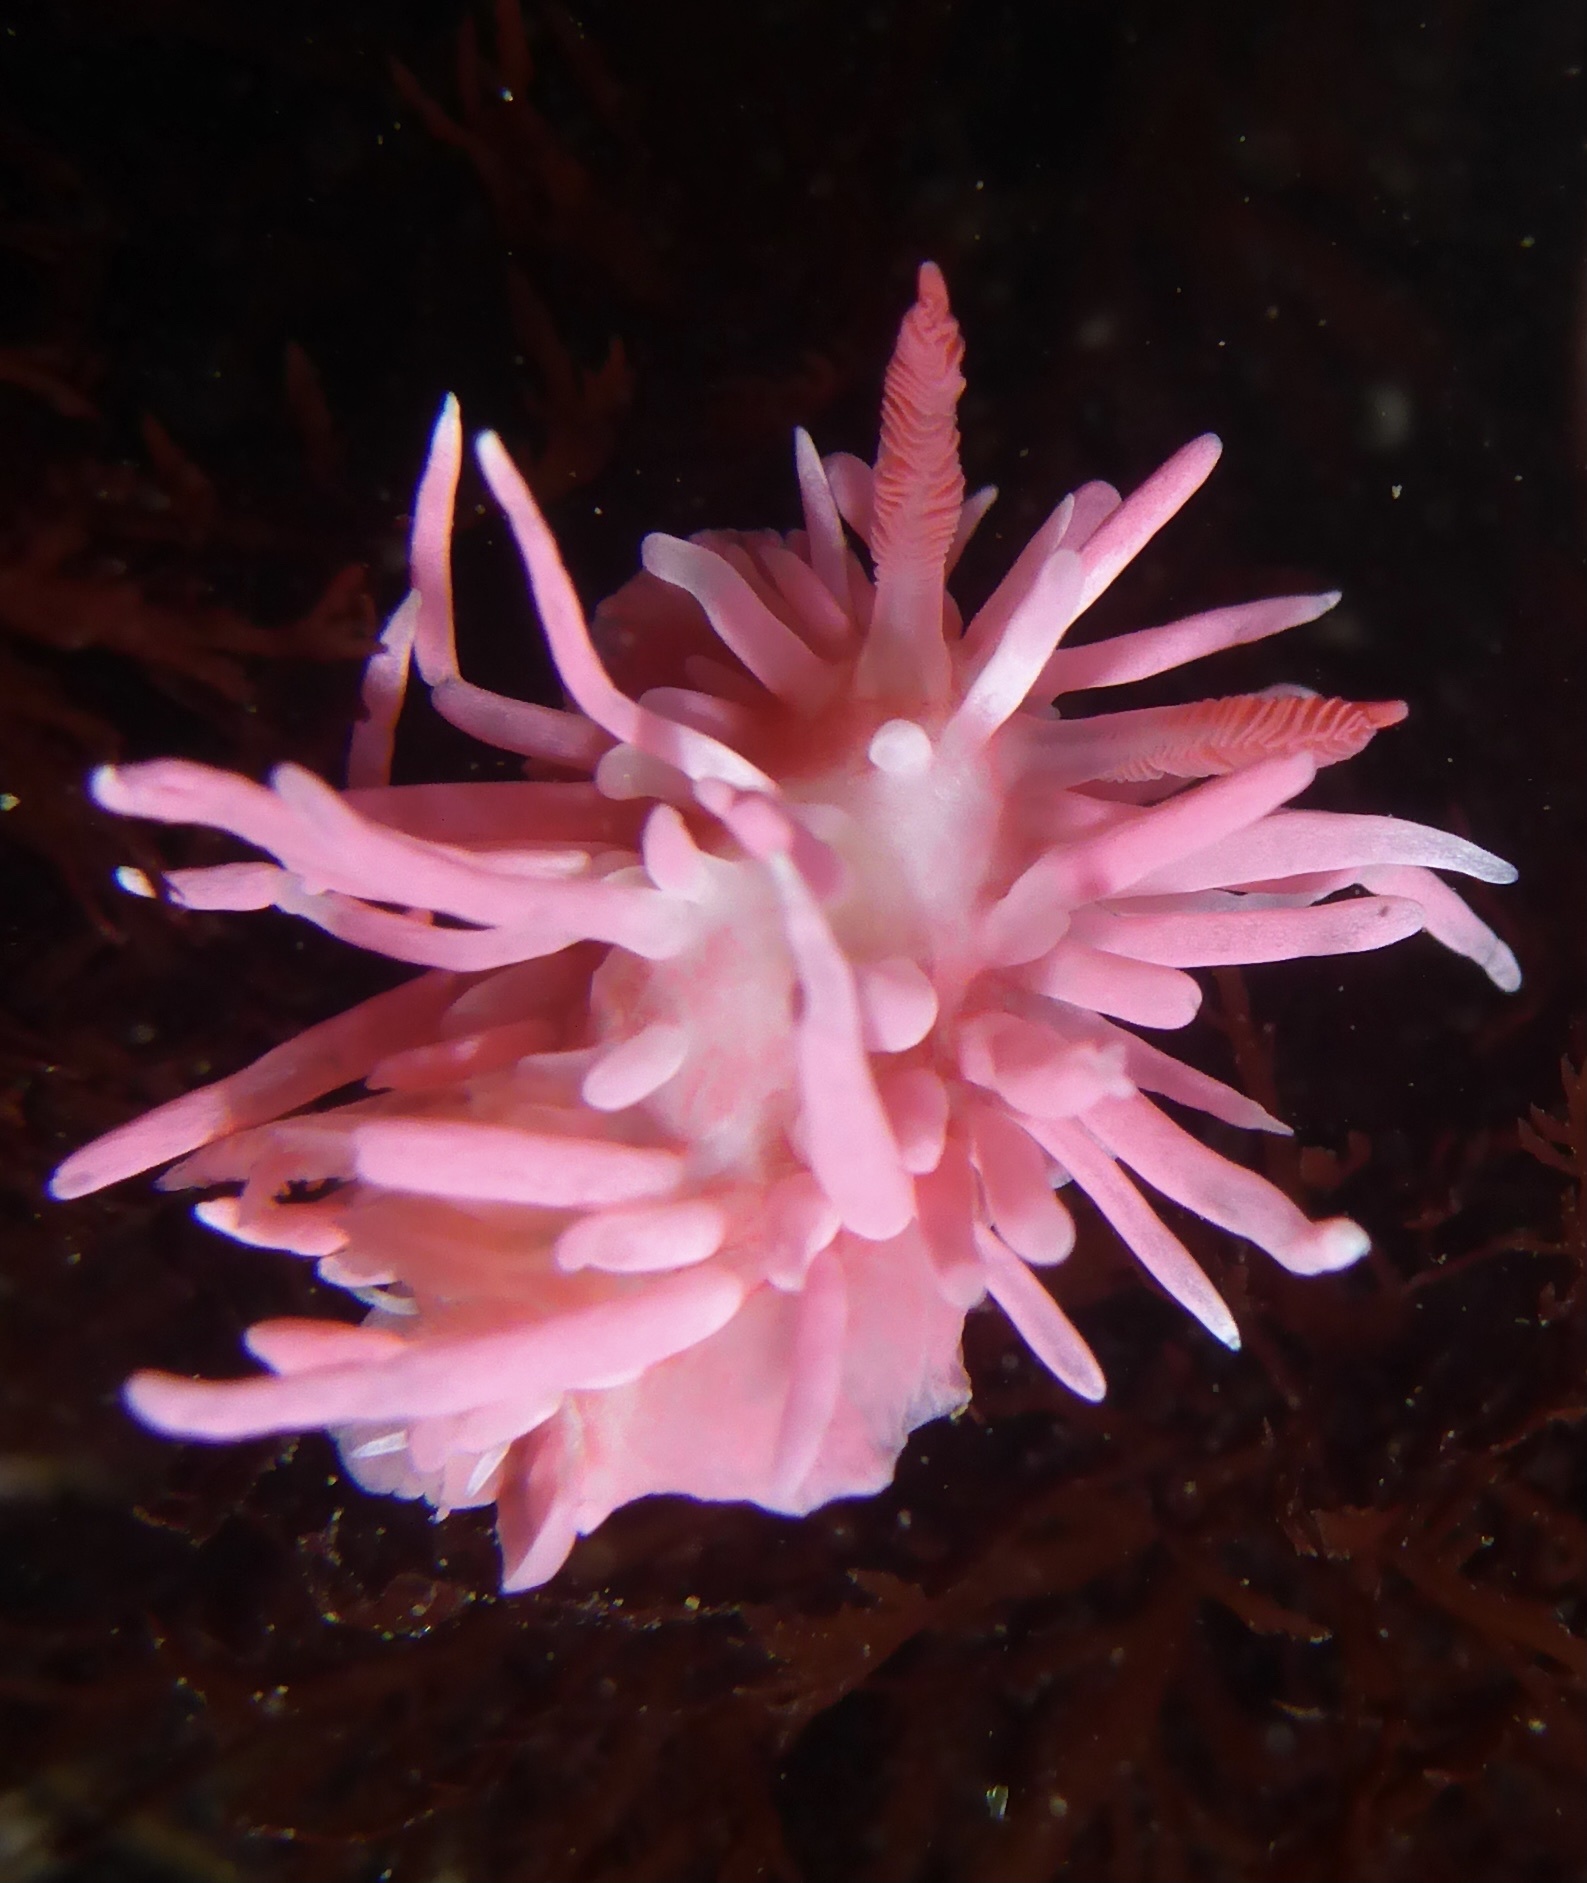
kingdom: Animalia
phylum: Mollusca
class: Gastropoda
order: Nudibranchia
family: Goniodorididae
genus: Okenia
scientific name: Okenia
